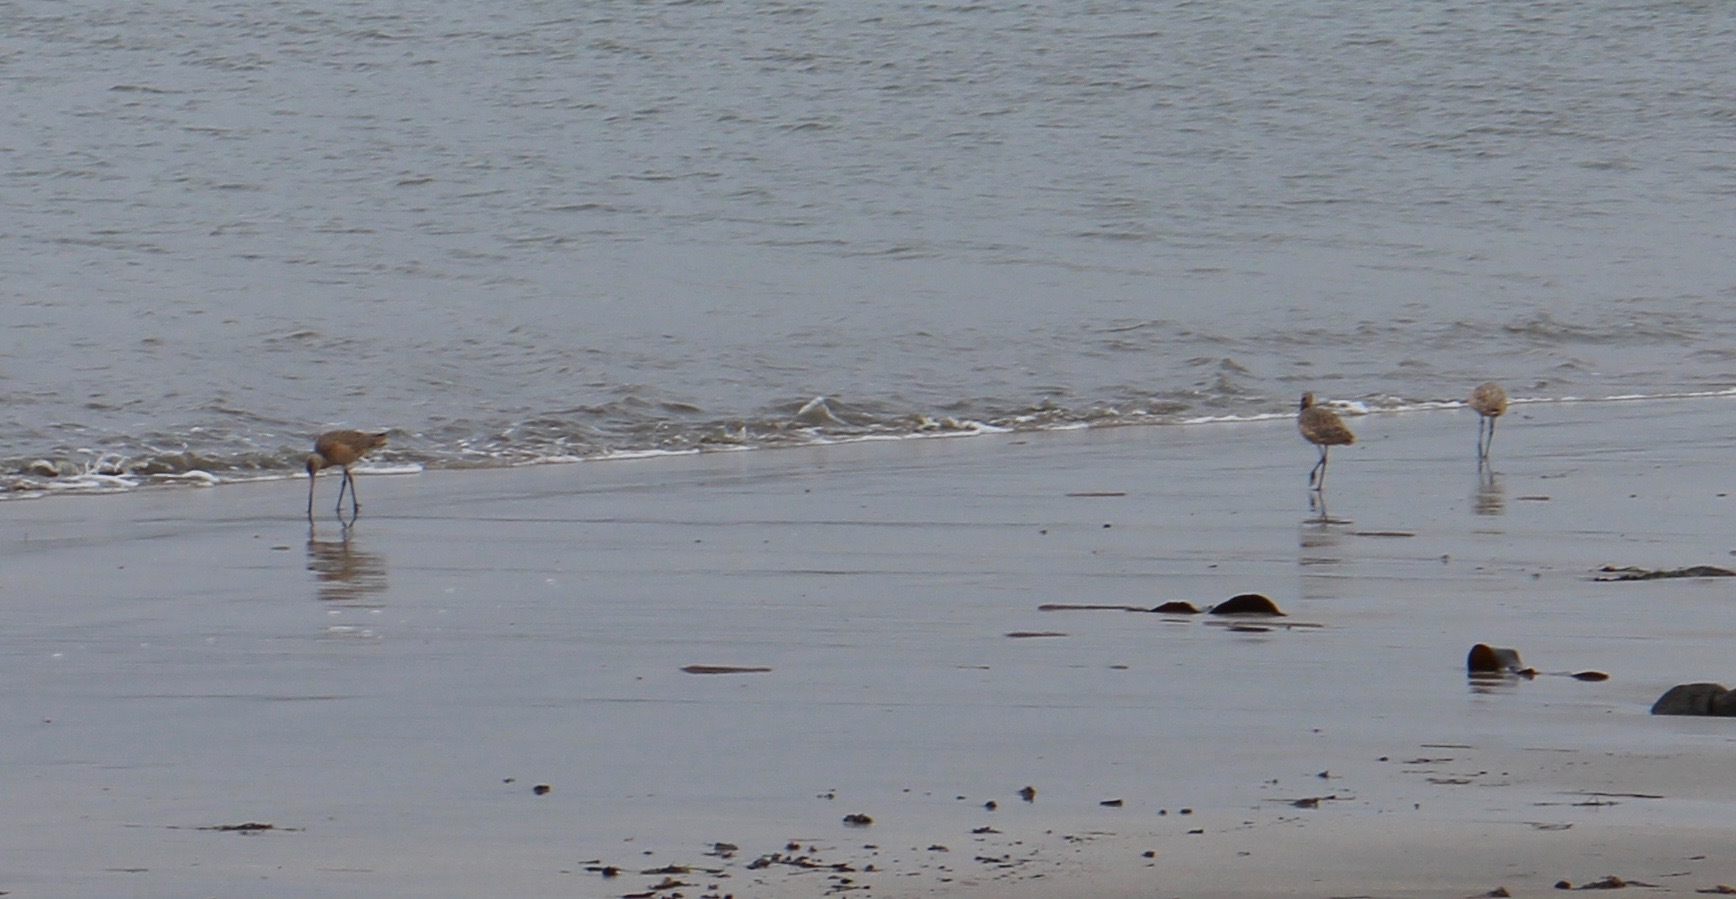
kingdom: Animalia
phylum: Chordata
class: Aves
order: Charadriiformes
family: Scolopacidae
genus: Limosa
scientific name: Limosa fedoa
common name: Marbled godwit
